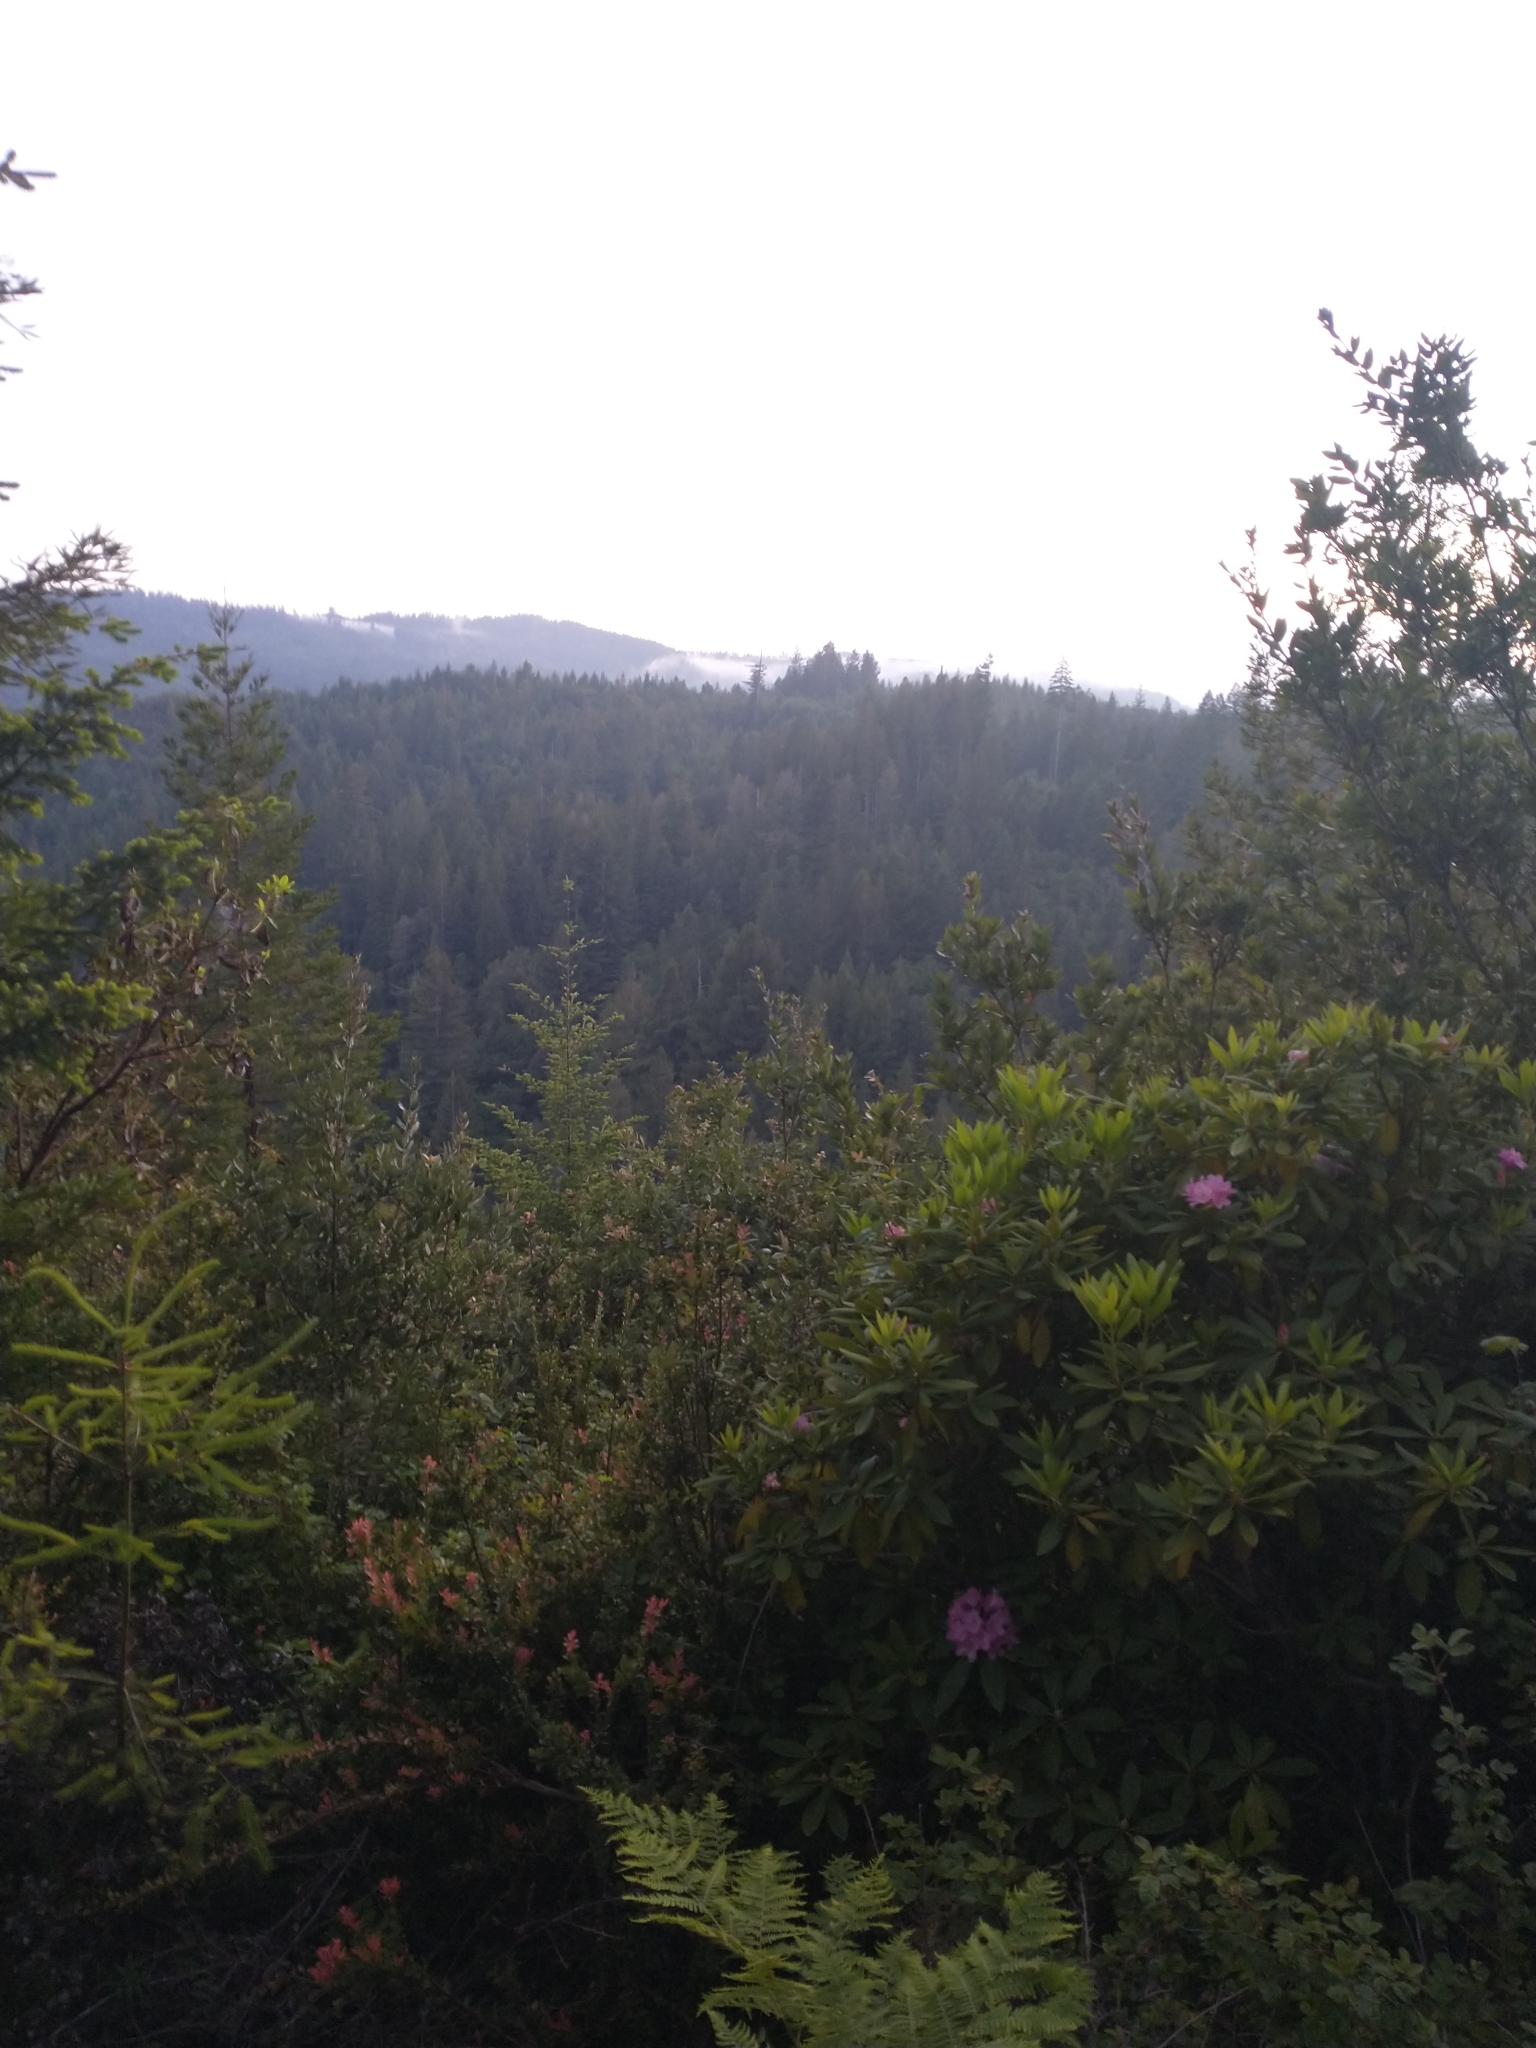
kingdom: Plantae
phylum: Tracheophyta
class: Magnoliopsida
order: Ericales
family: Ericaceae
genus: Rhododendron
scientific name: Rhododendron macrophyllum
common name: California rose bay
